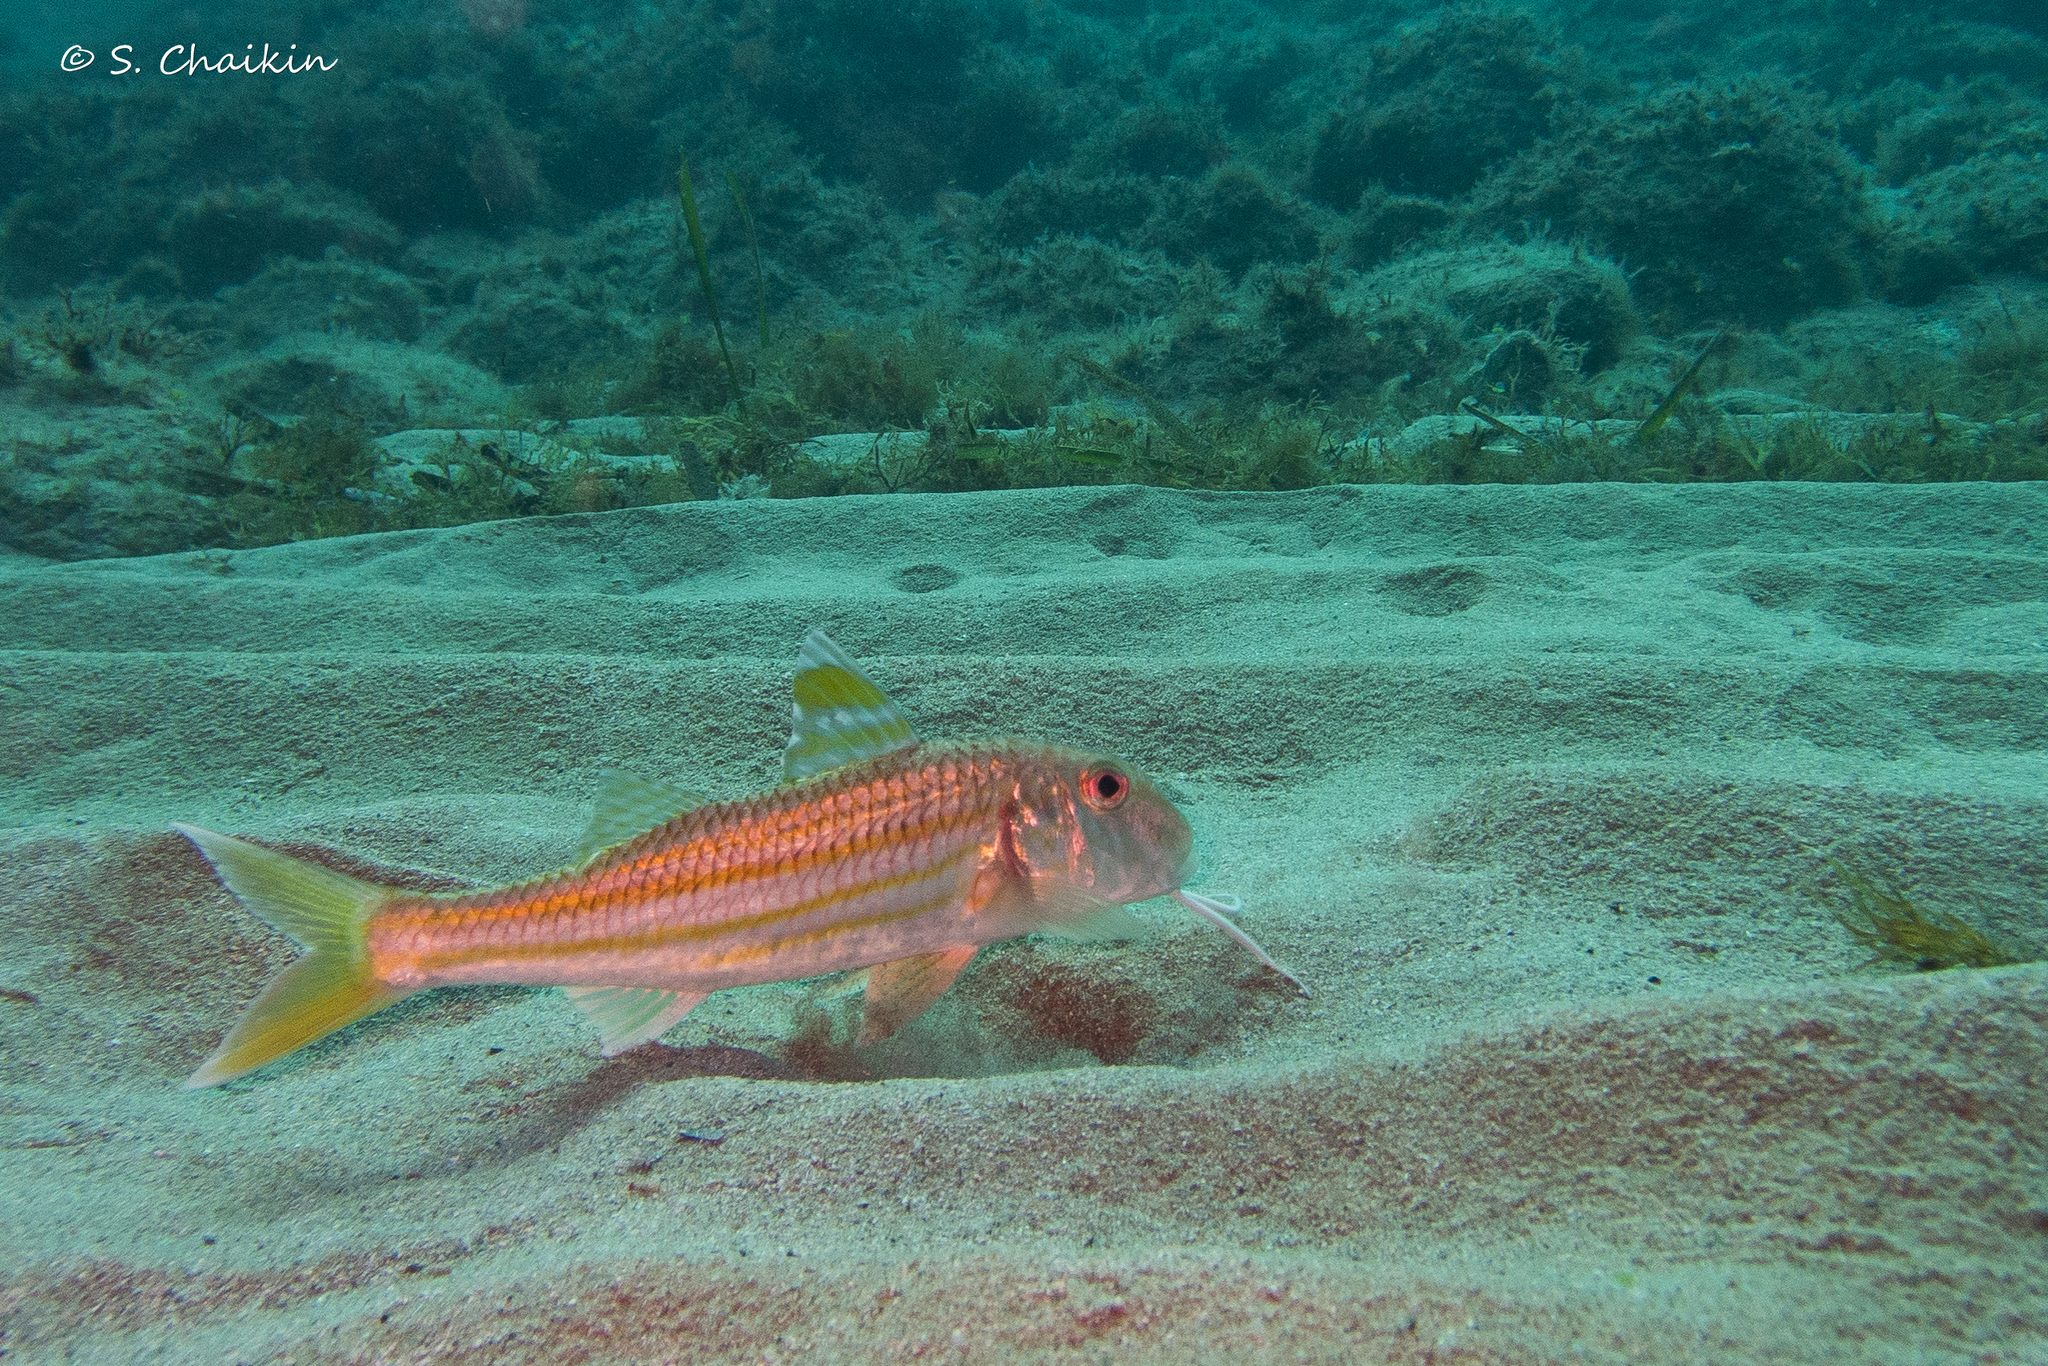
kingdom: Animalia
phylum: Chordata
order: Perciformes
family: Mullidae
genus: Mullus
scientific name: Mullus surmuletus
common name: Red mullet
